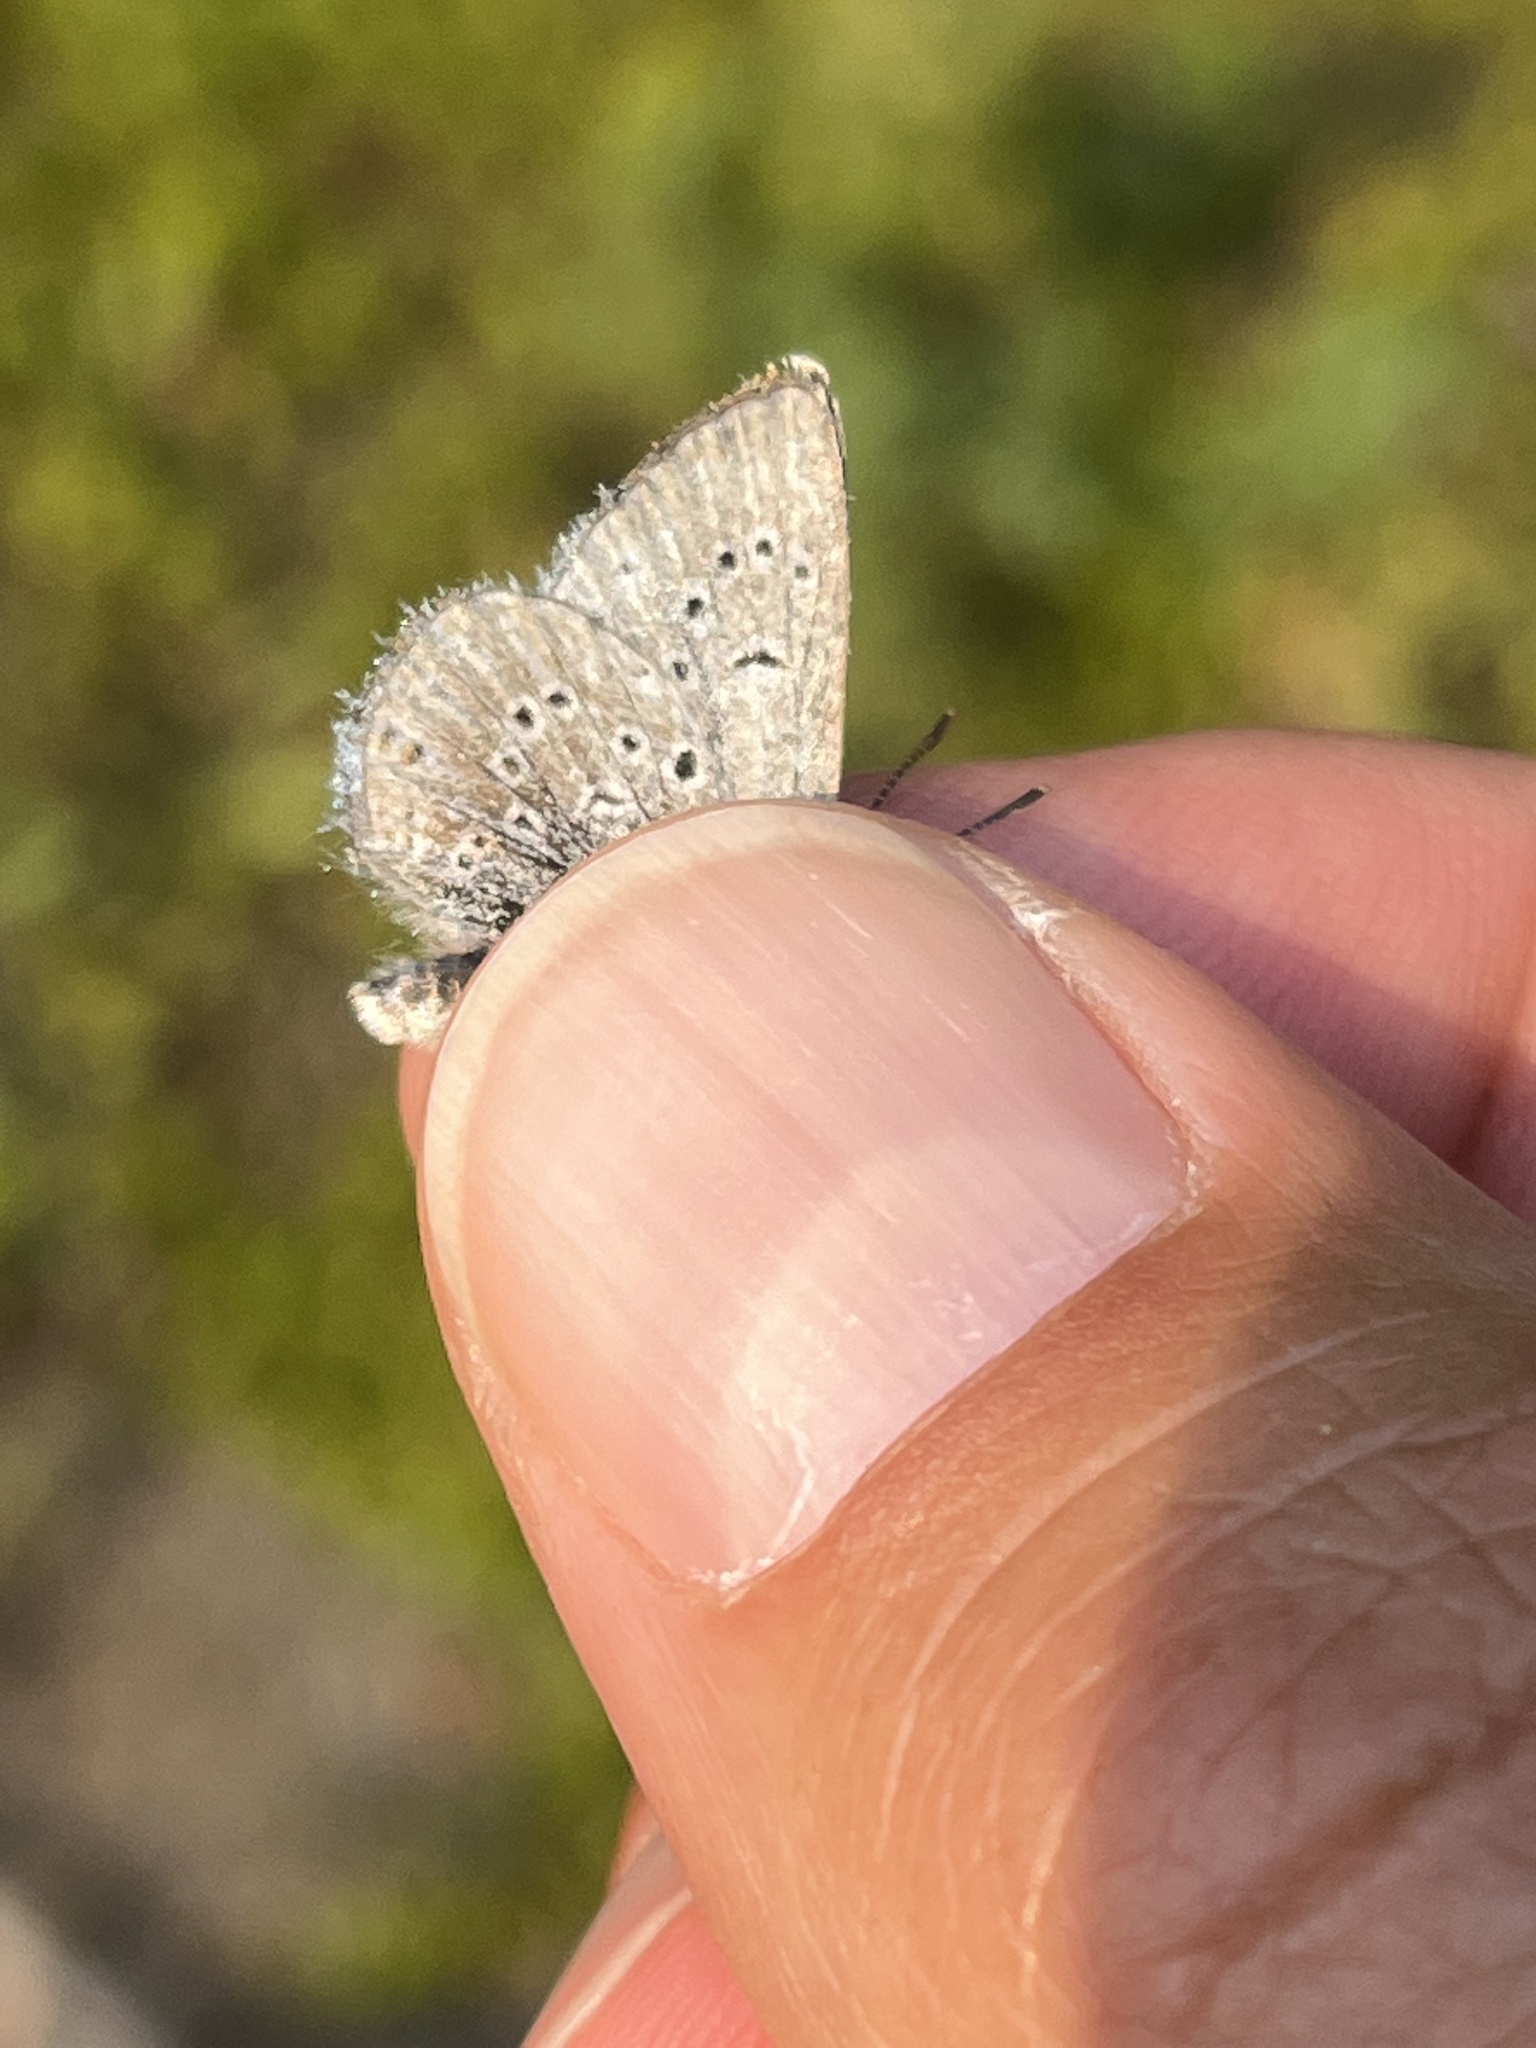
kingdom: Animalia
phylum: Arthropoda
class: Insecta
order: Lepidoptera
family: Lycaenidae
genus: Icaricia
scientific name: Icaricia saepiolus
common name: Greenish blue
